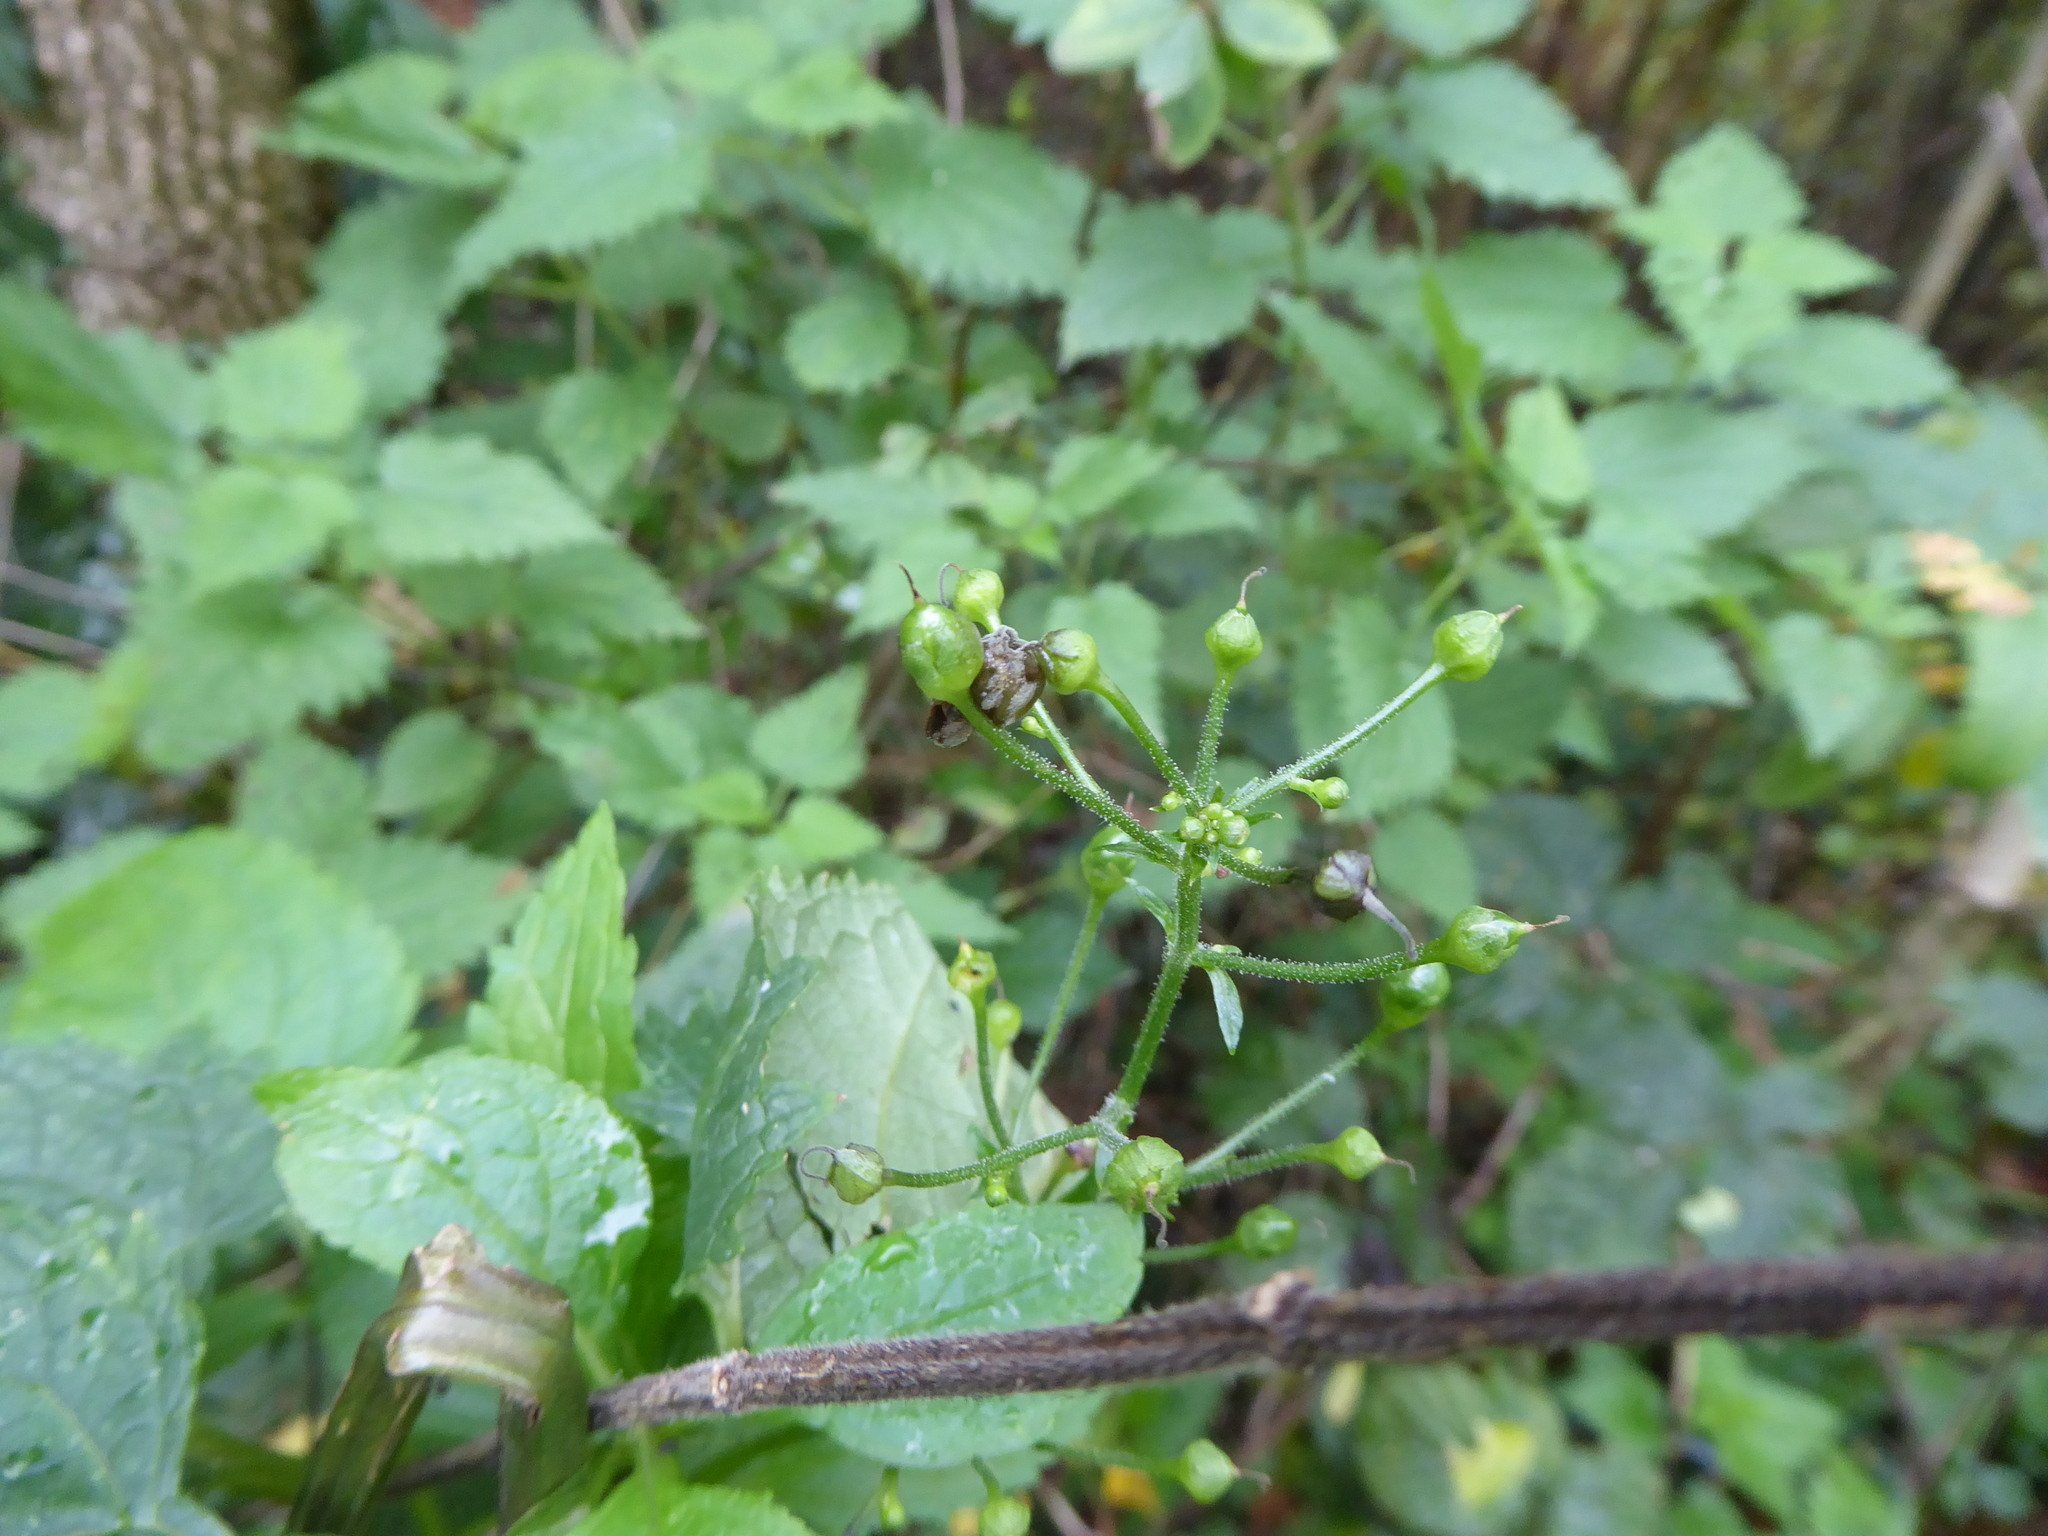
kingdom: Plantae
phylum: Tracheophyta
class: Magnoliopsida
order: Lamiales
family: Scrophulariaceae
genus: Scrophularia
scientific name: Scrophularia nodosa
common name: Common figwort
